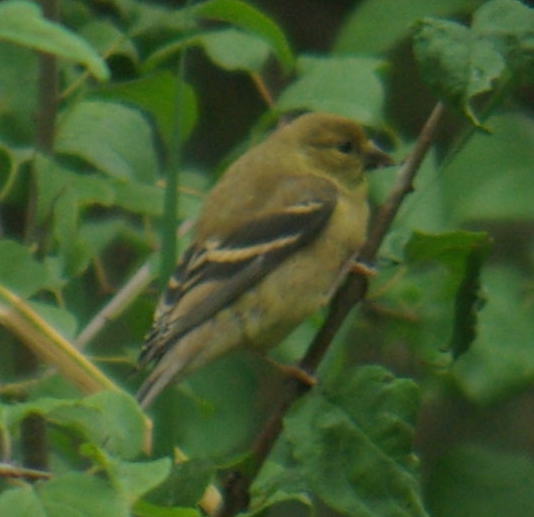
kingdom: Animalia
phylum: Chordata
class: Aves
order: Passeriformes
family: Fringillidae
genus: Spinus
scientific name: Spinus tristis
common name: American goldfinch
